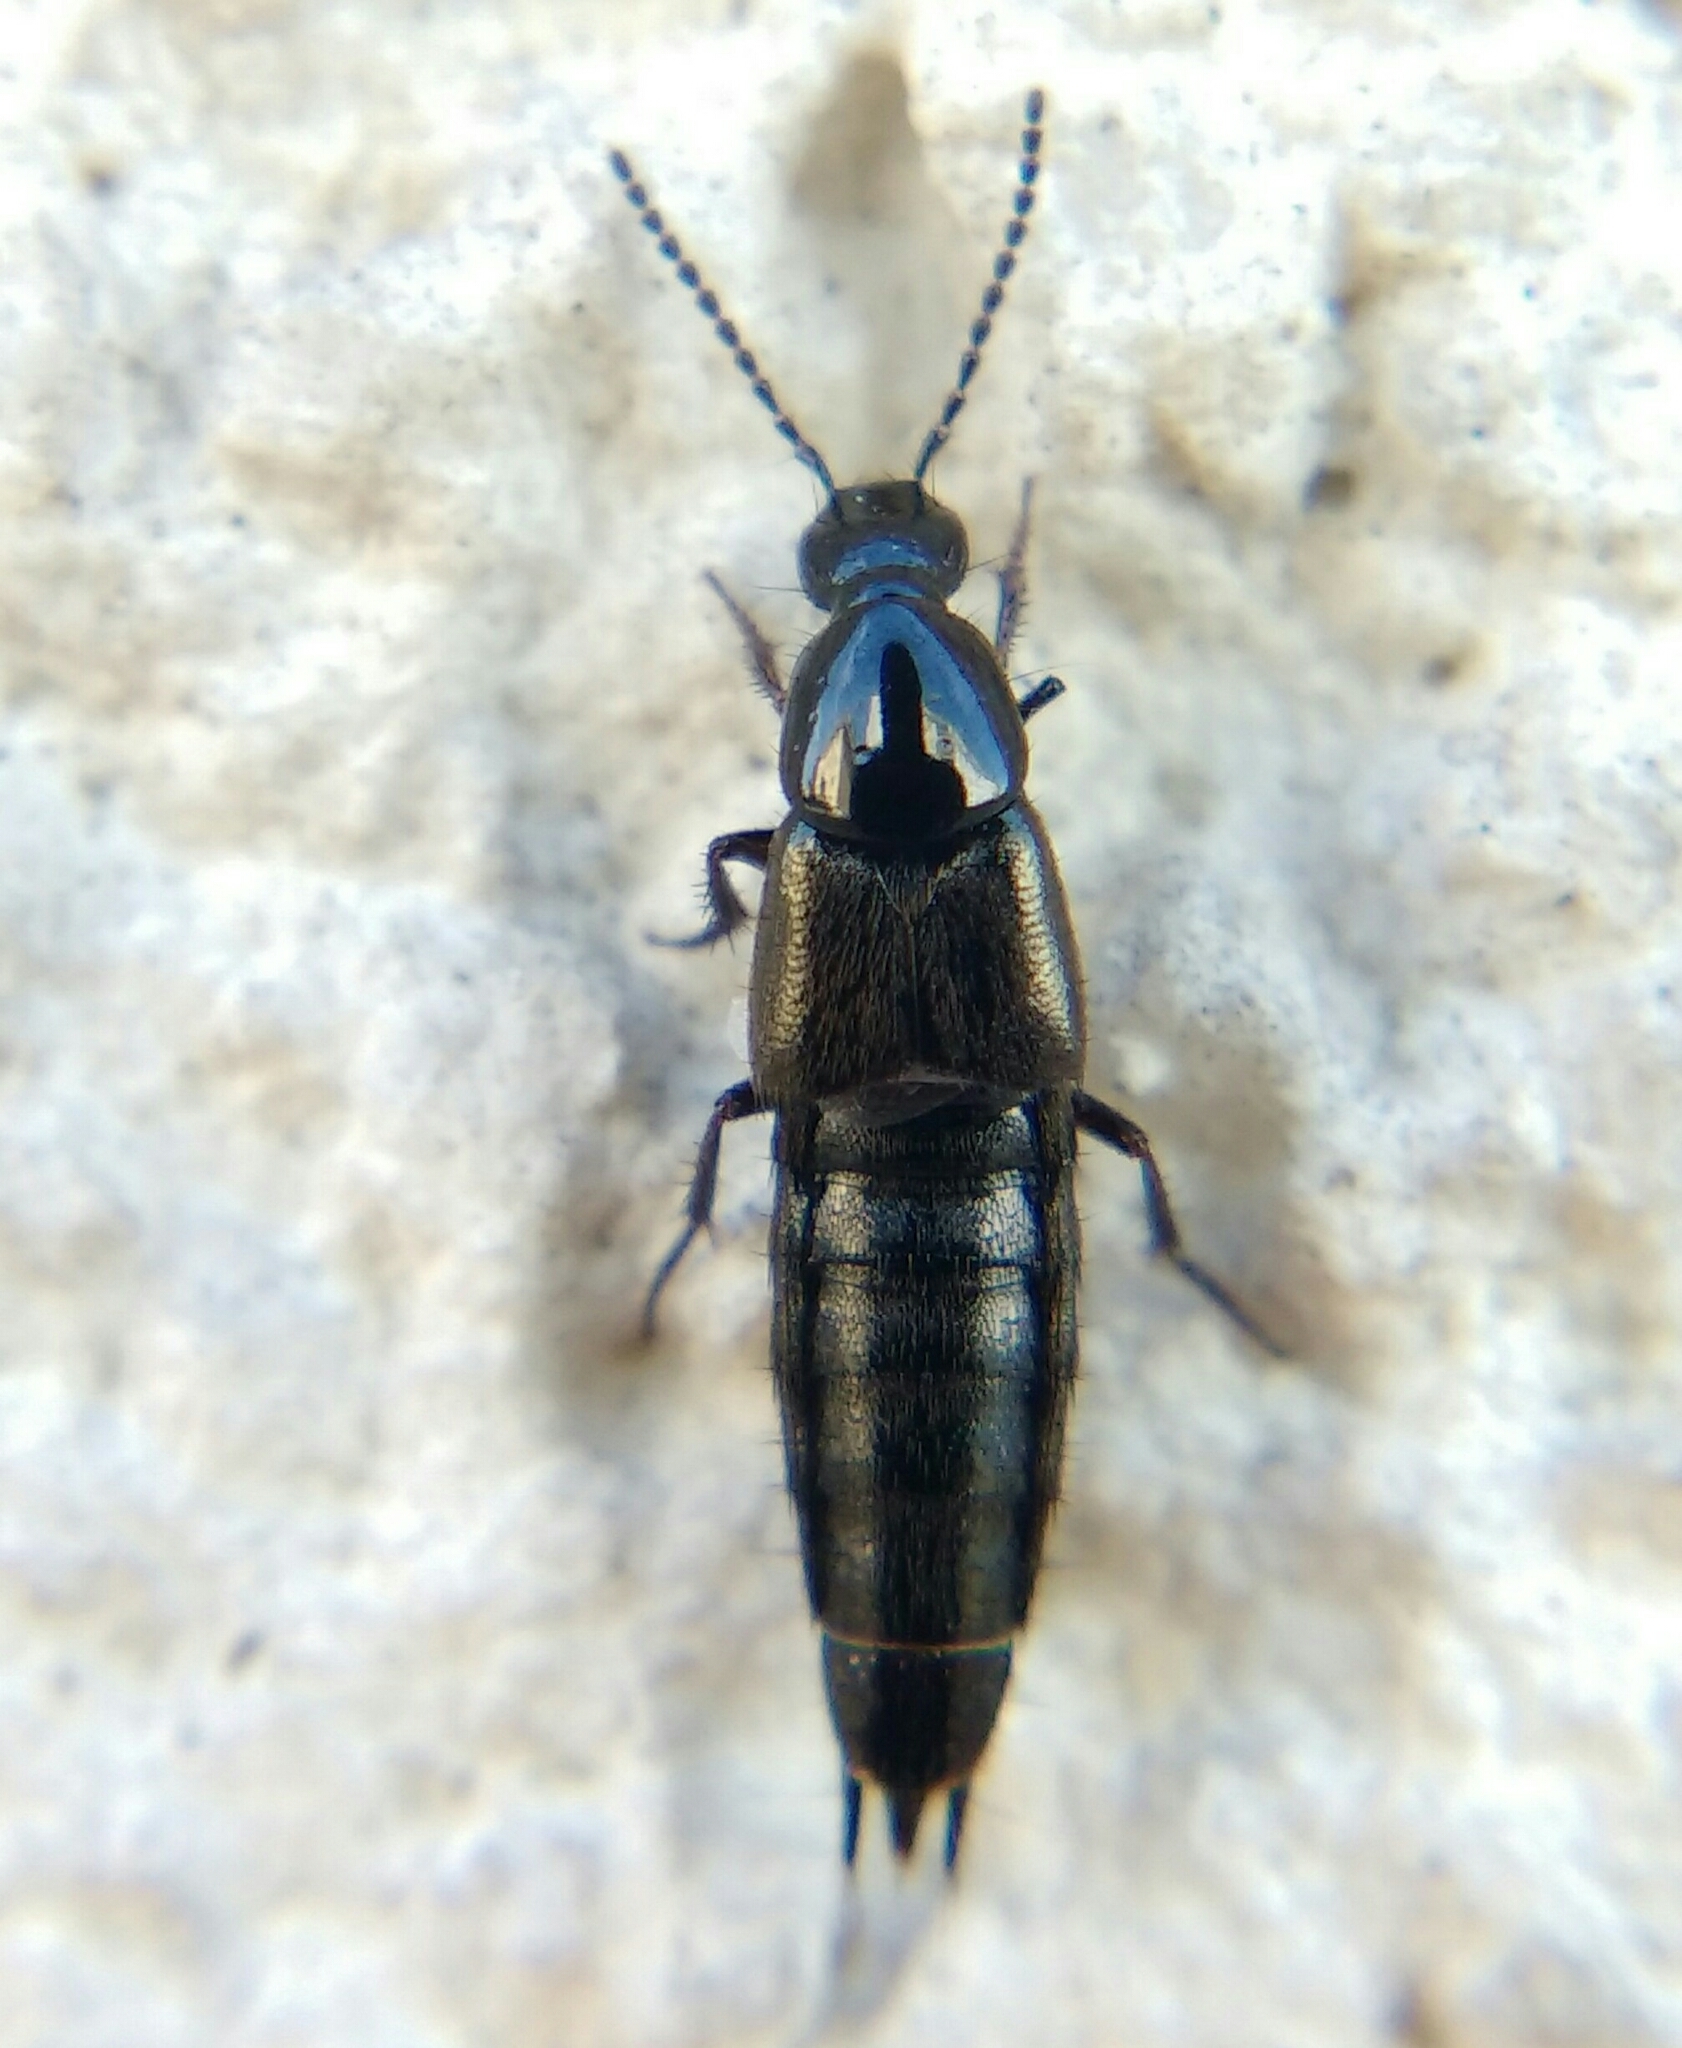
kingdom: Animalia
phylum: Arthropoda
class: Insecta
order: Coleoptera
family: Staphylinidae
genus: Philonthus
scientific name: Philonthus carbonarius
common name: Staph beetle
